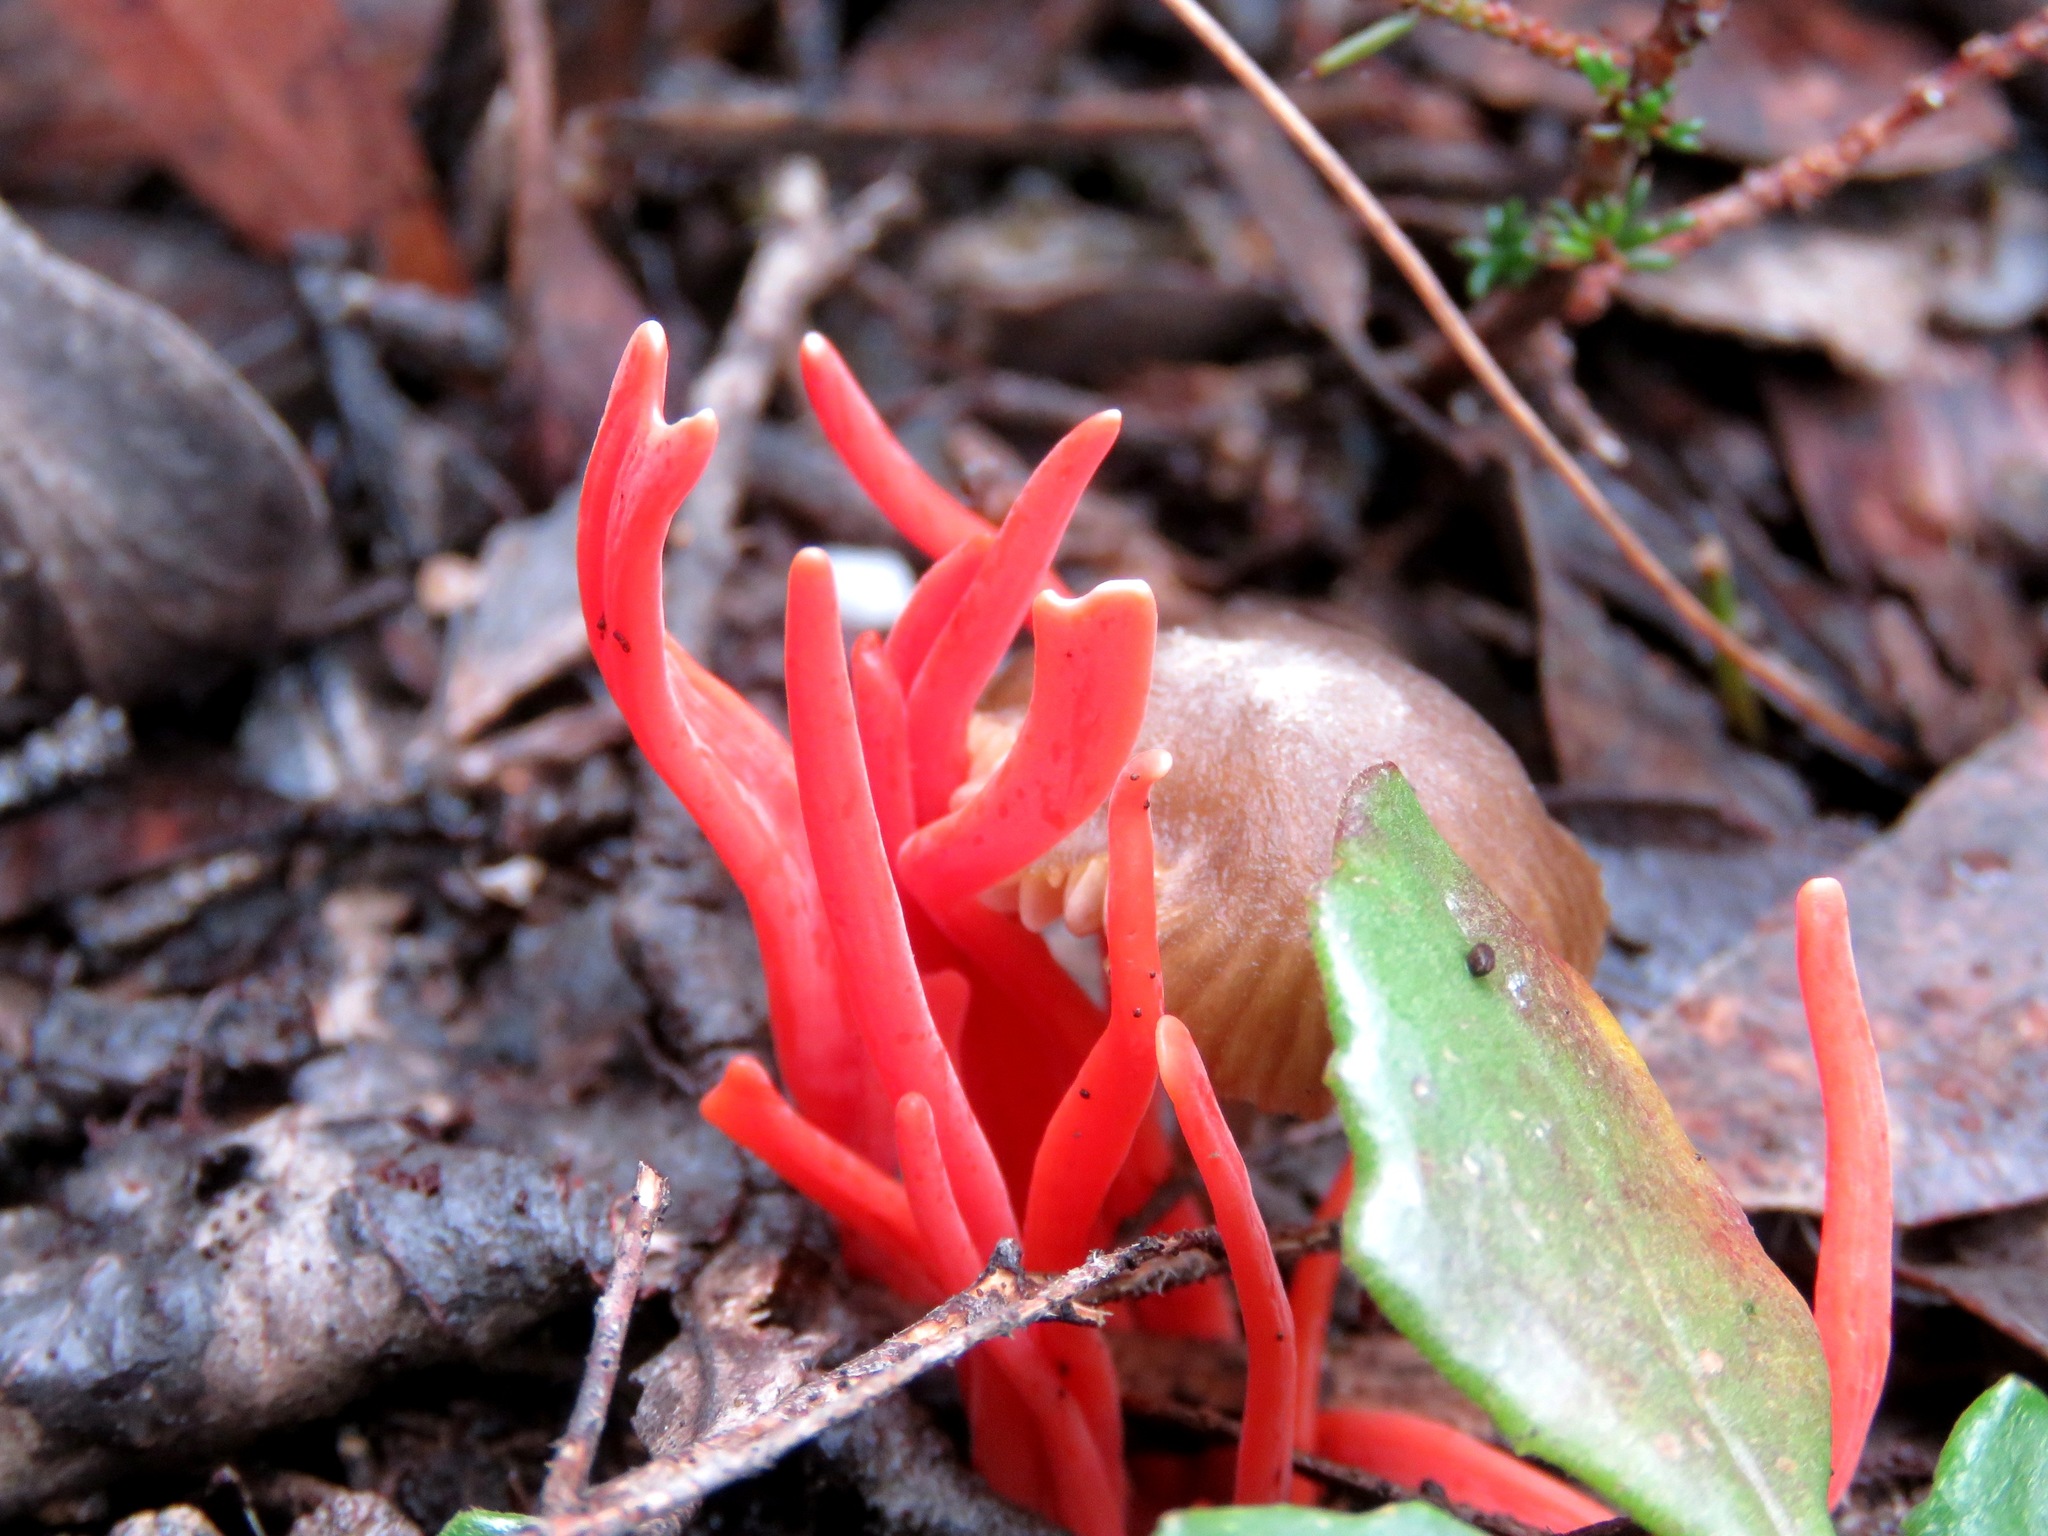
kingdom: Fungi
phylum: Basidiomycota
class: Agaricomycetes
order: Agaricales
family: Clavariaceae
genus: Clavulinopsis
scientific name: Clavulinopsis sulcata
